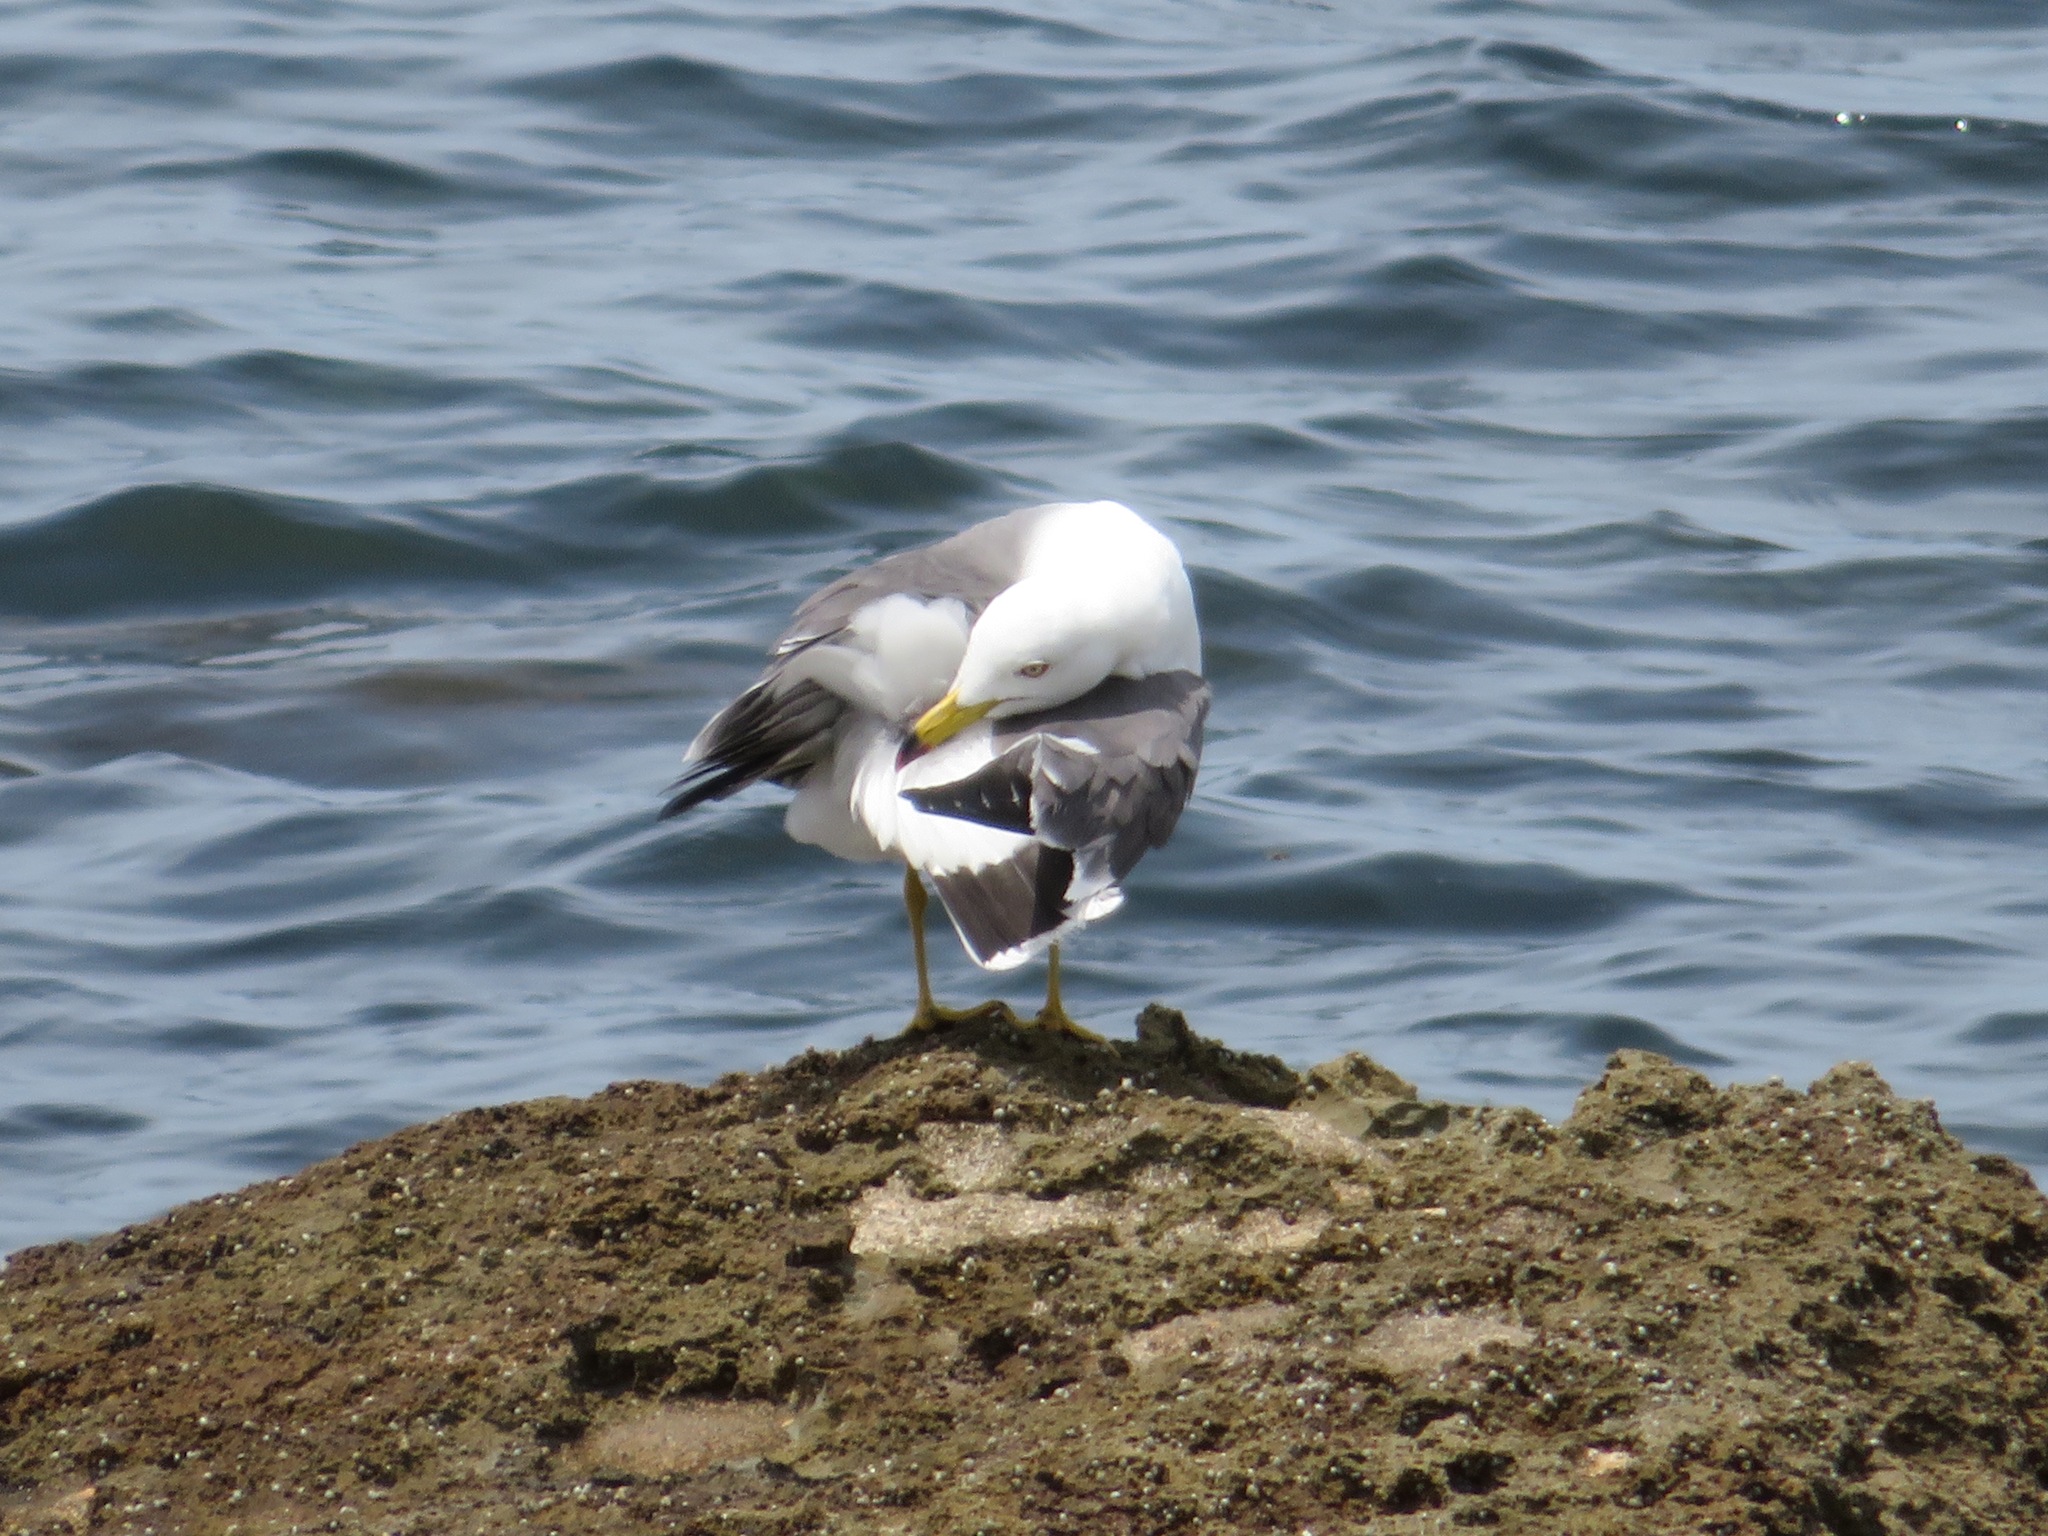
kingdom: Animalia
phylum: Chordata
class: Aves
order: Charadriiformes
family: Laridae
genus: Larus
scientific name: Larus crassirostris
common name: Black-tailed gull
